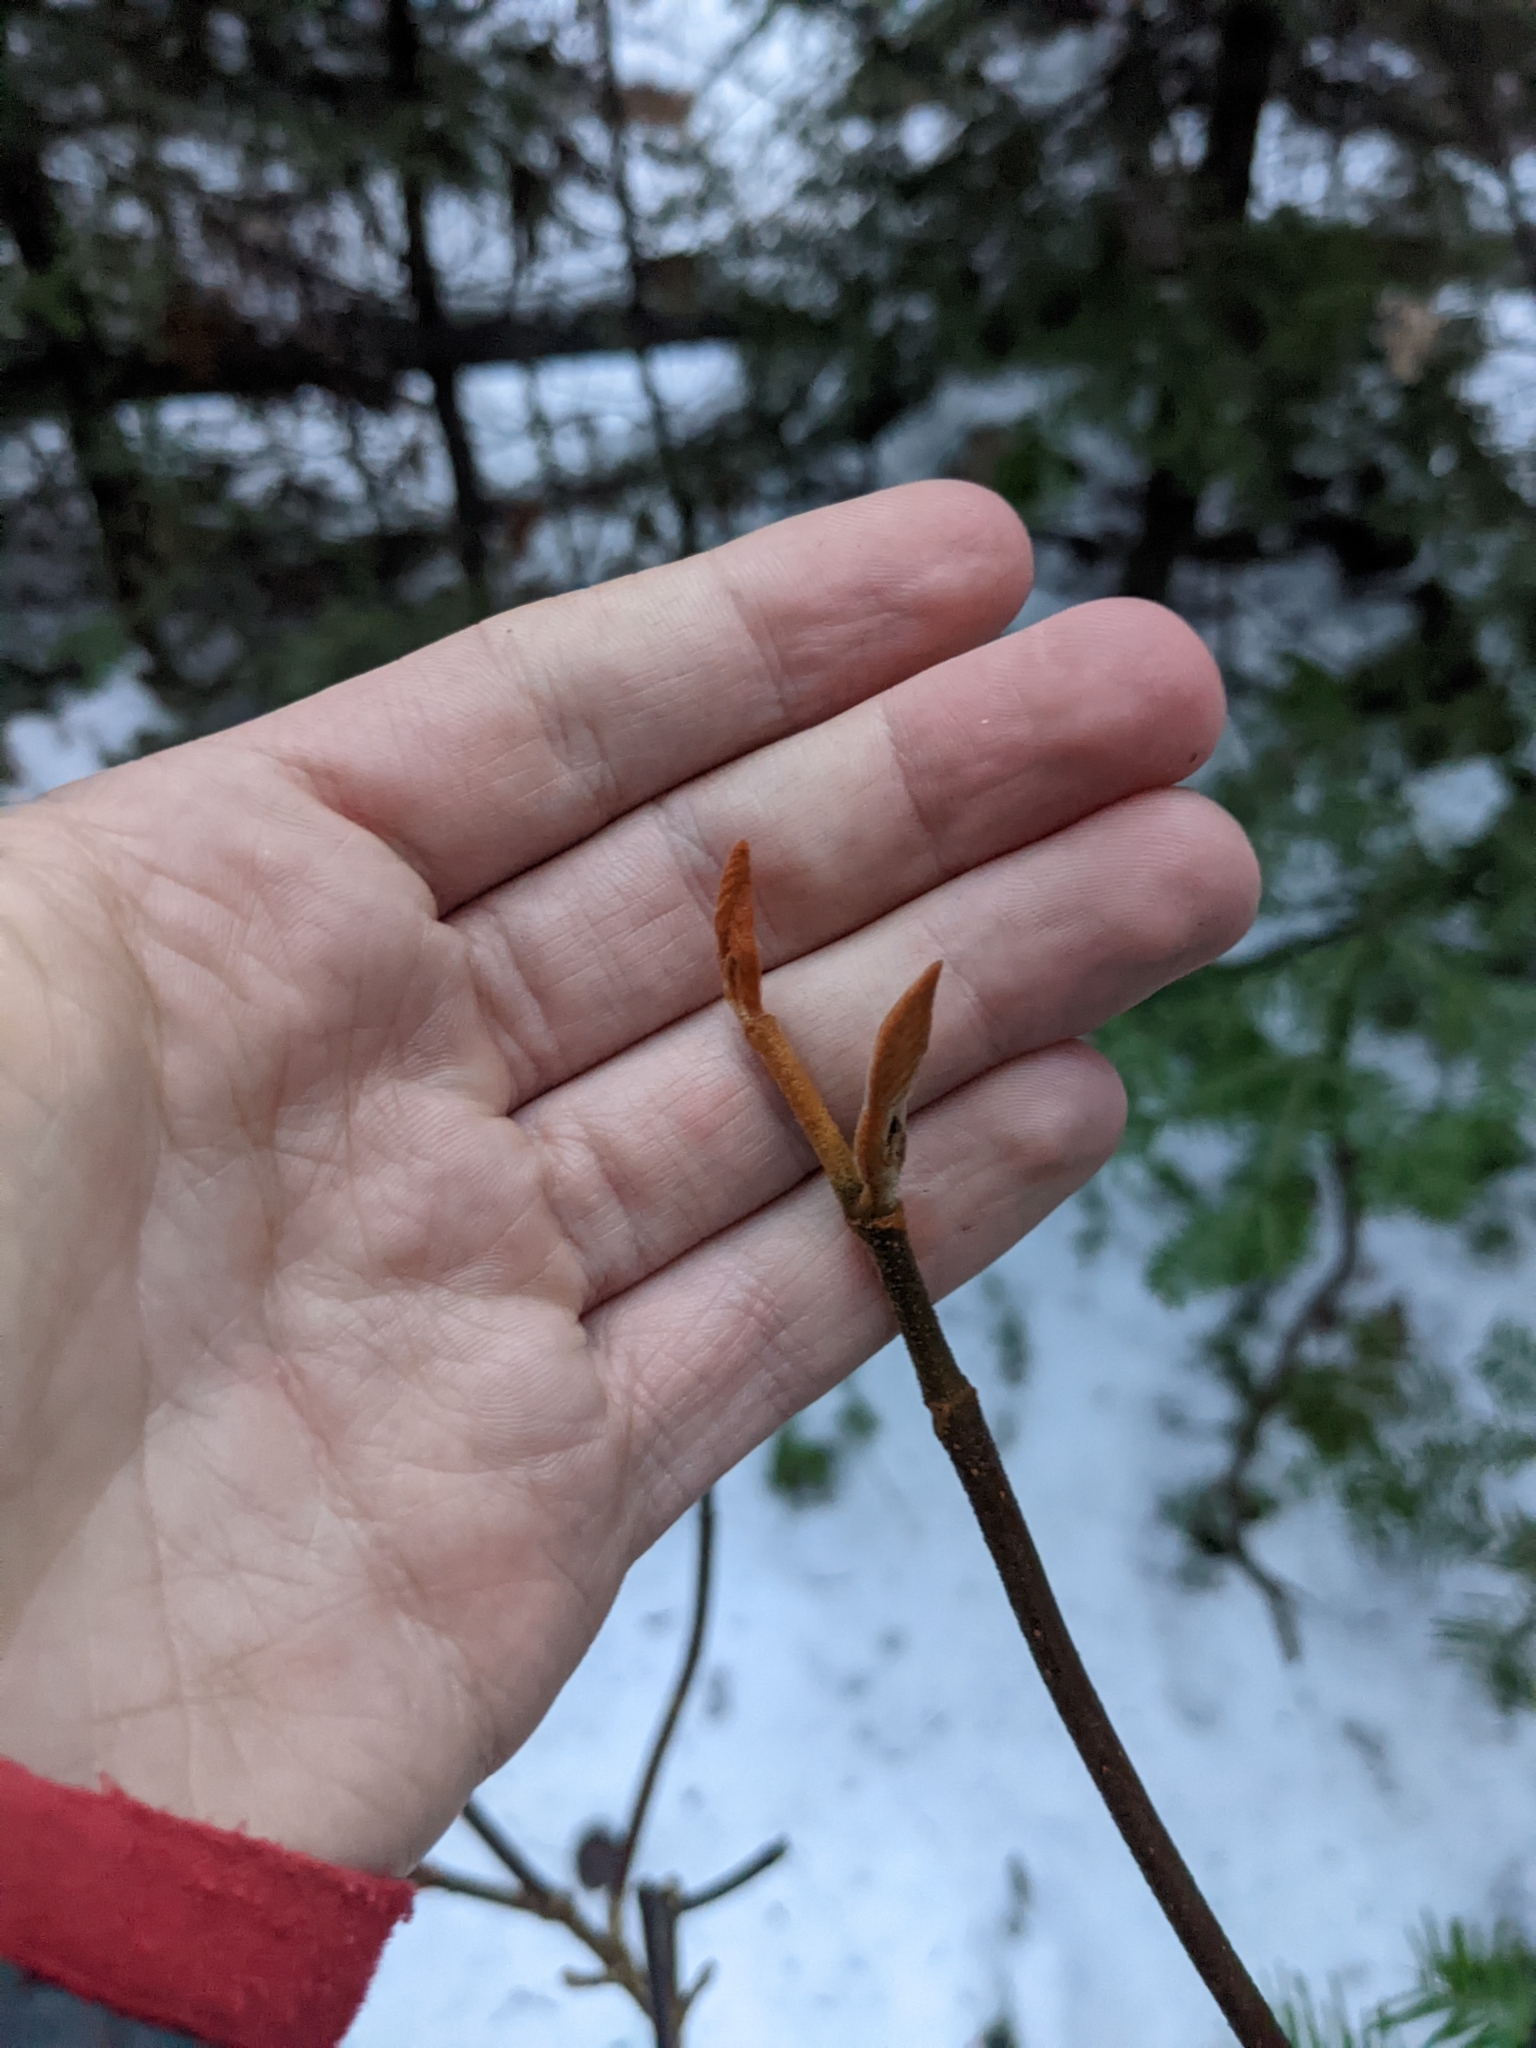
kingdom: Plantae
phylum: Tracheophyta
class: Magnoliopsida
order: Dipsacales
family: Viburnaceae
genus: Viburnum
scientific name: Viburnum lantanoides
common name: Hobblebush
